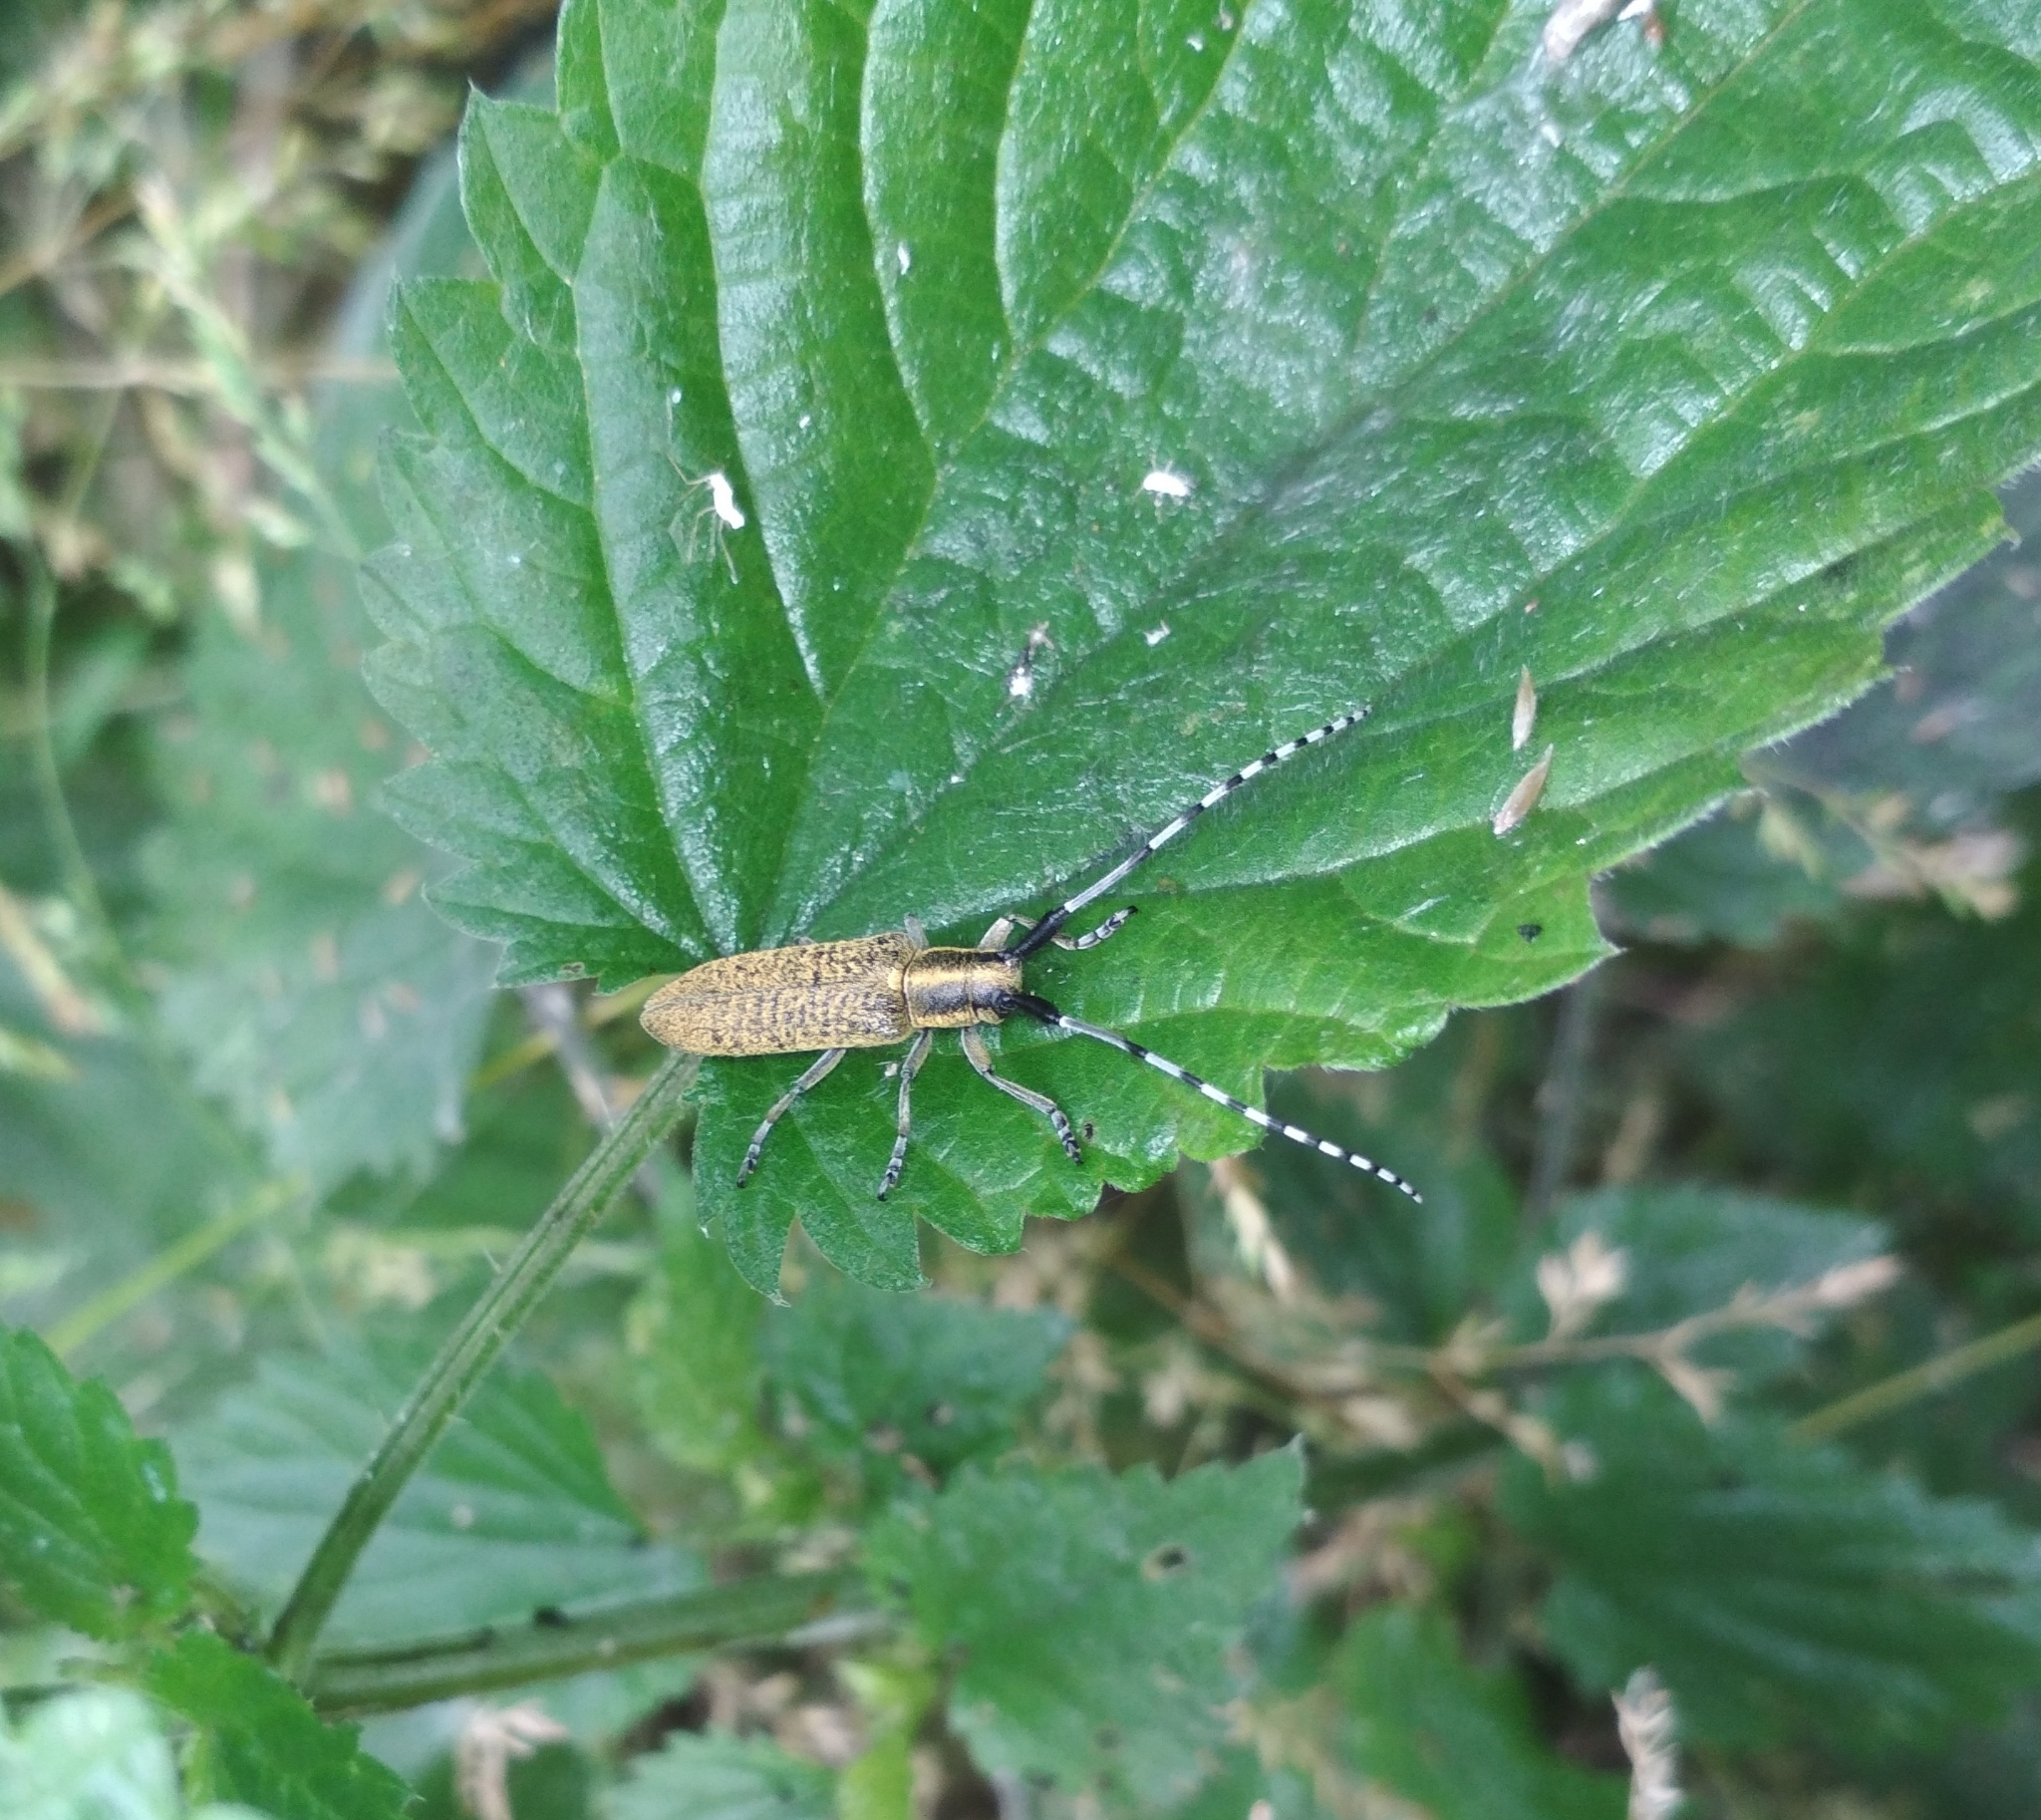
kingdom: Animalia
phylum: Arthropoda
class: Insecta
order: Coleoptera
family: Cerambycidae
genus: Agapanthia
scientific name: Agapanthia villosoviridescens
